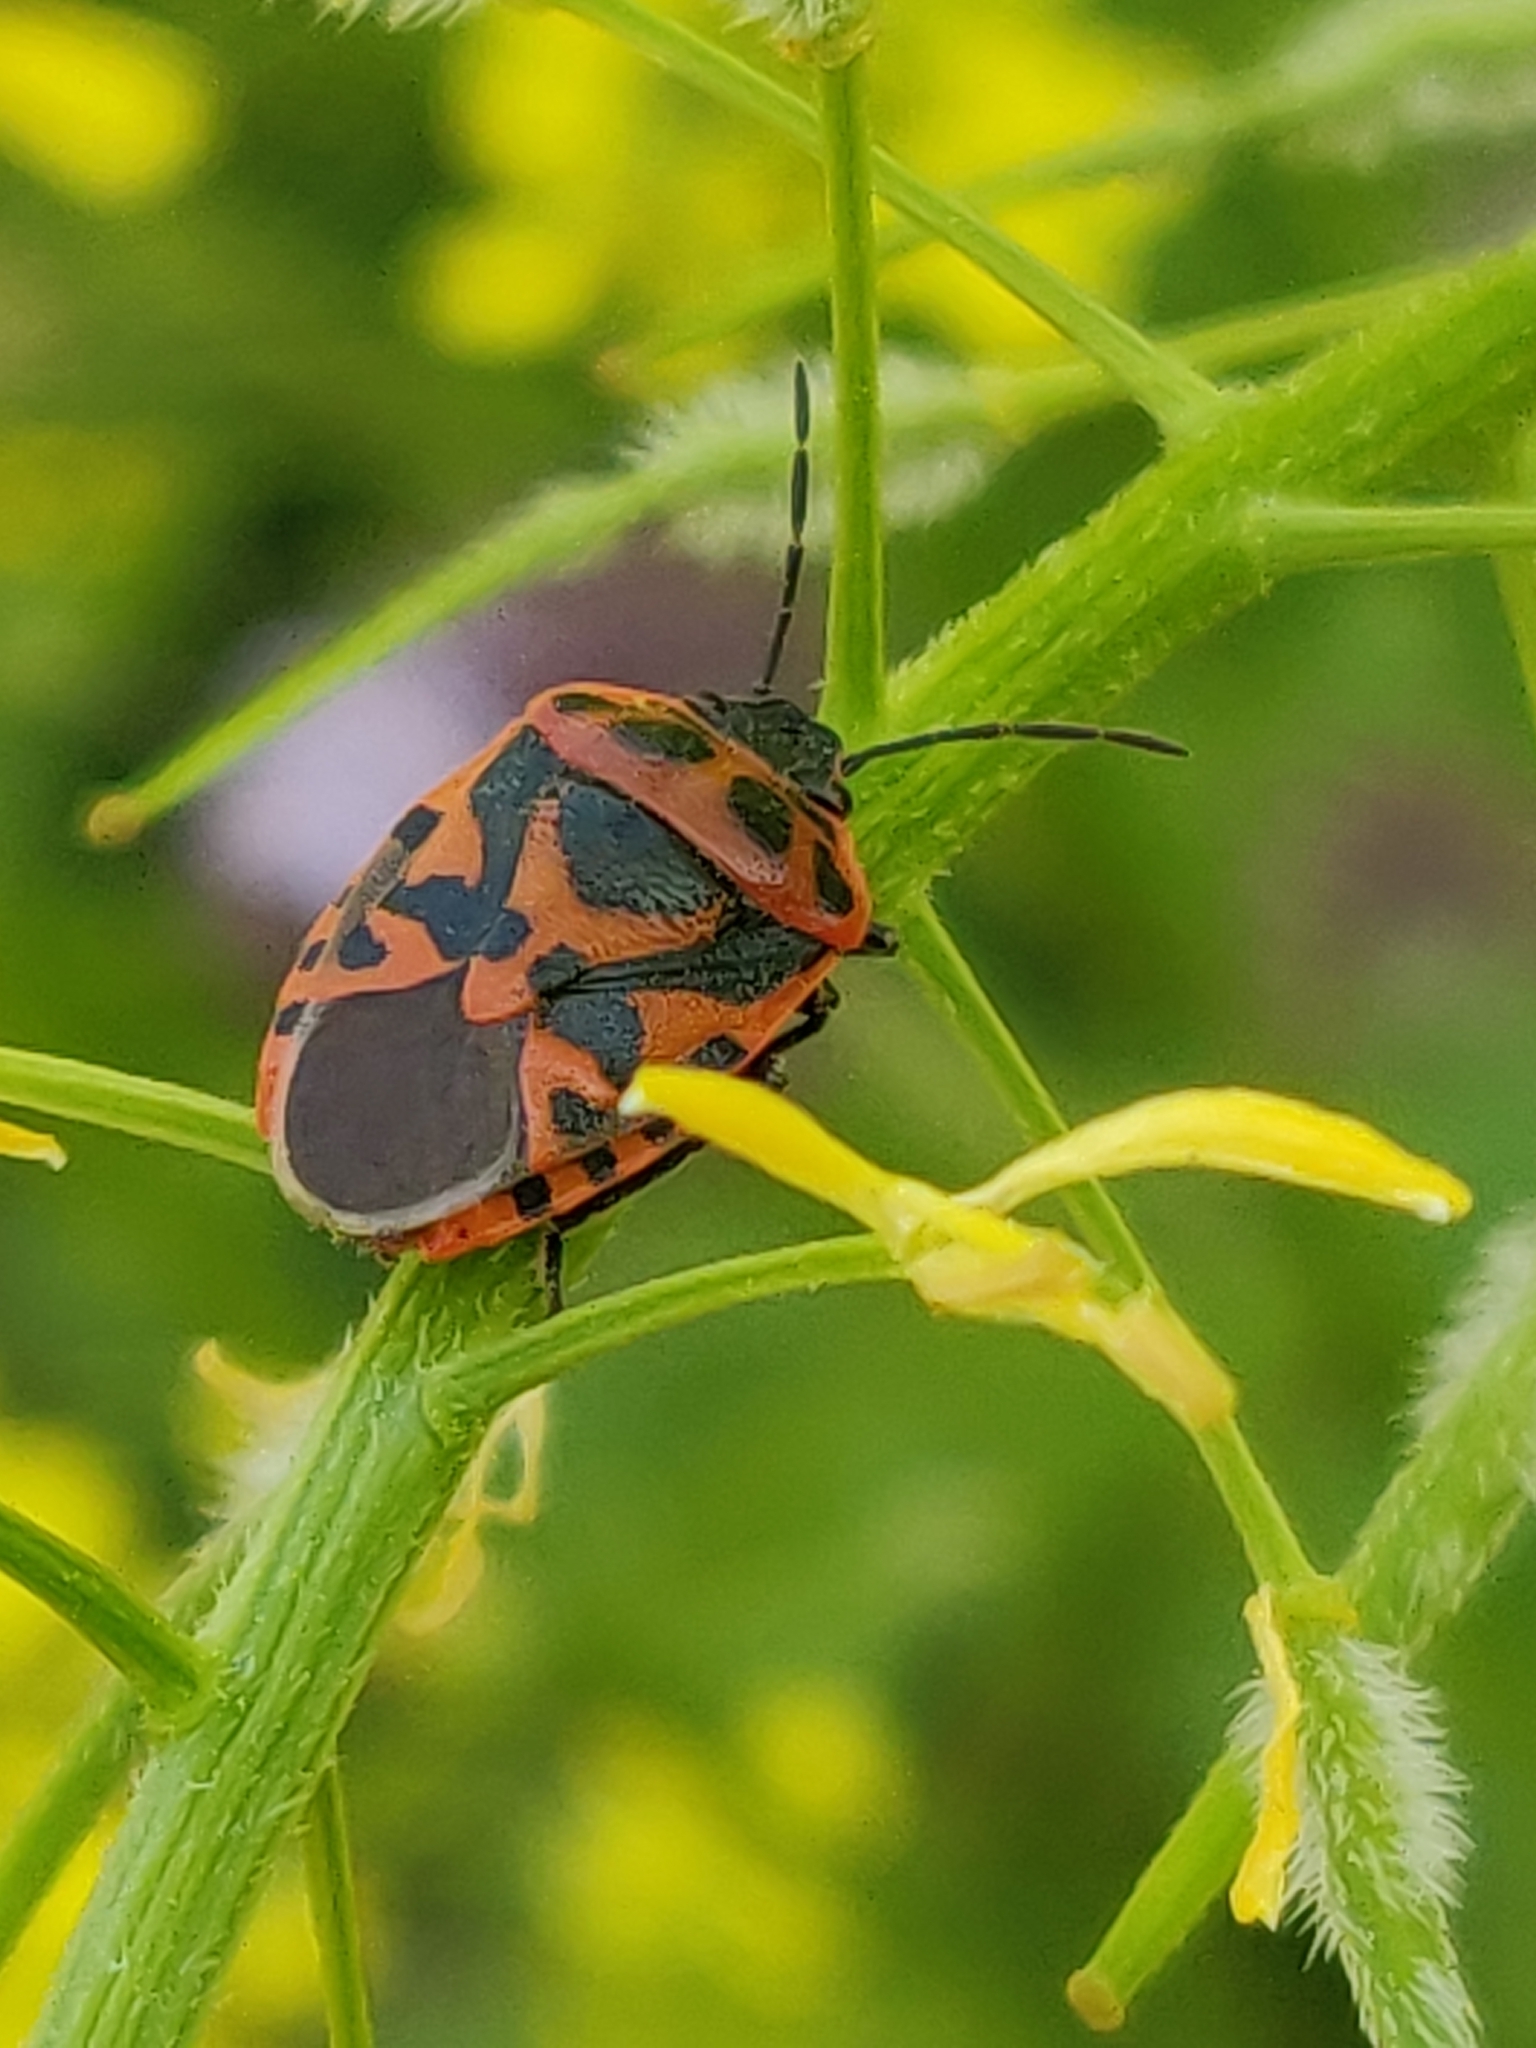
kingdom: Animalia
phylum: Arthropoda
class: Insecta
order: Hemiptera
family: Pentatomidae
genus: Eurydema
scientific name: Eurydema ornata
